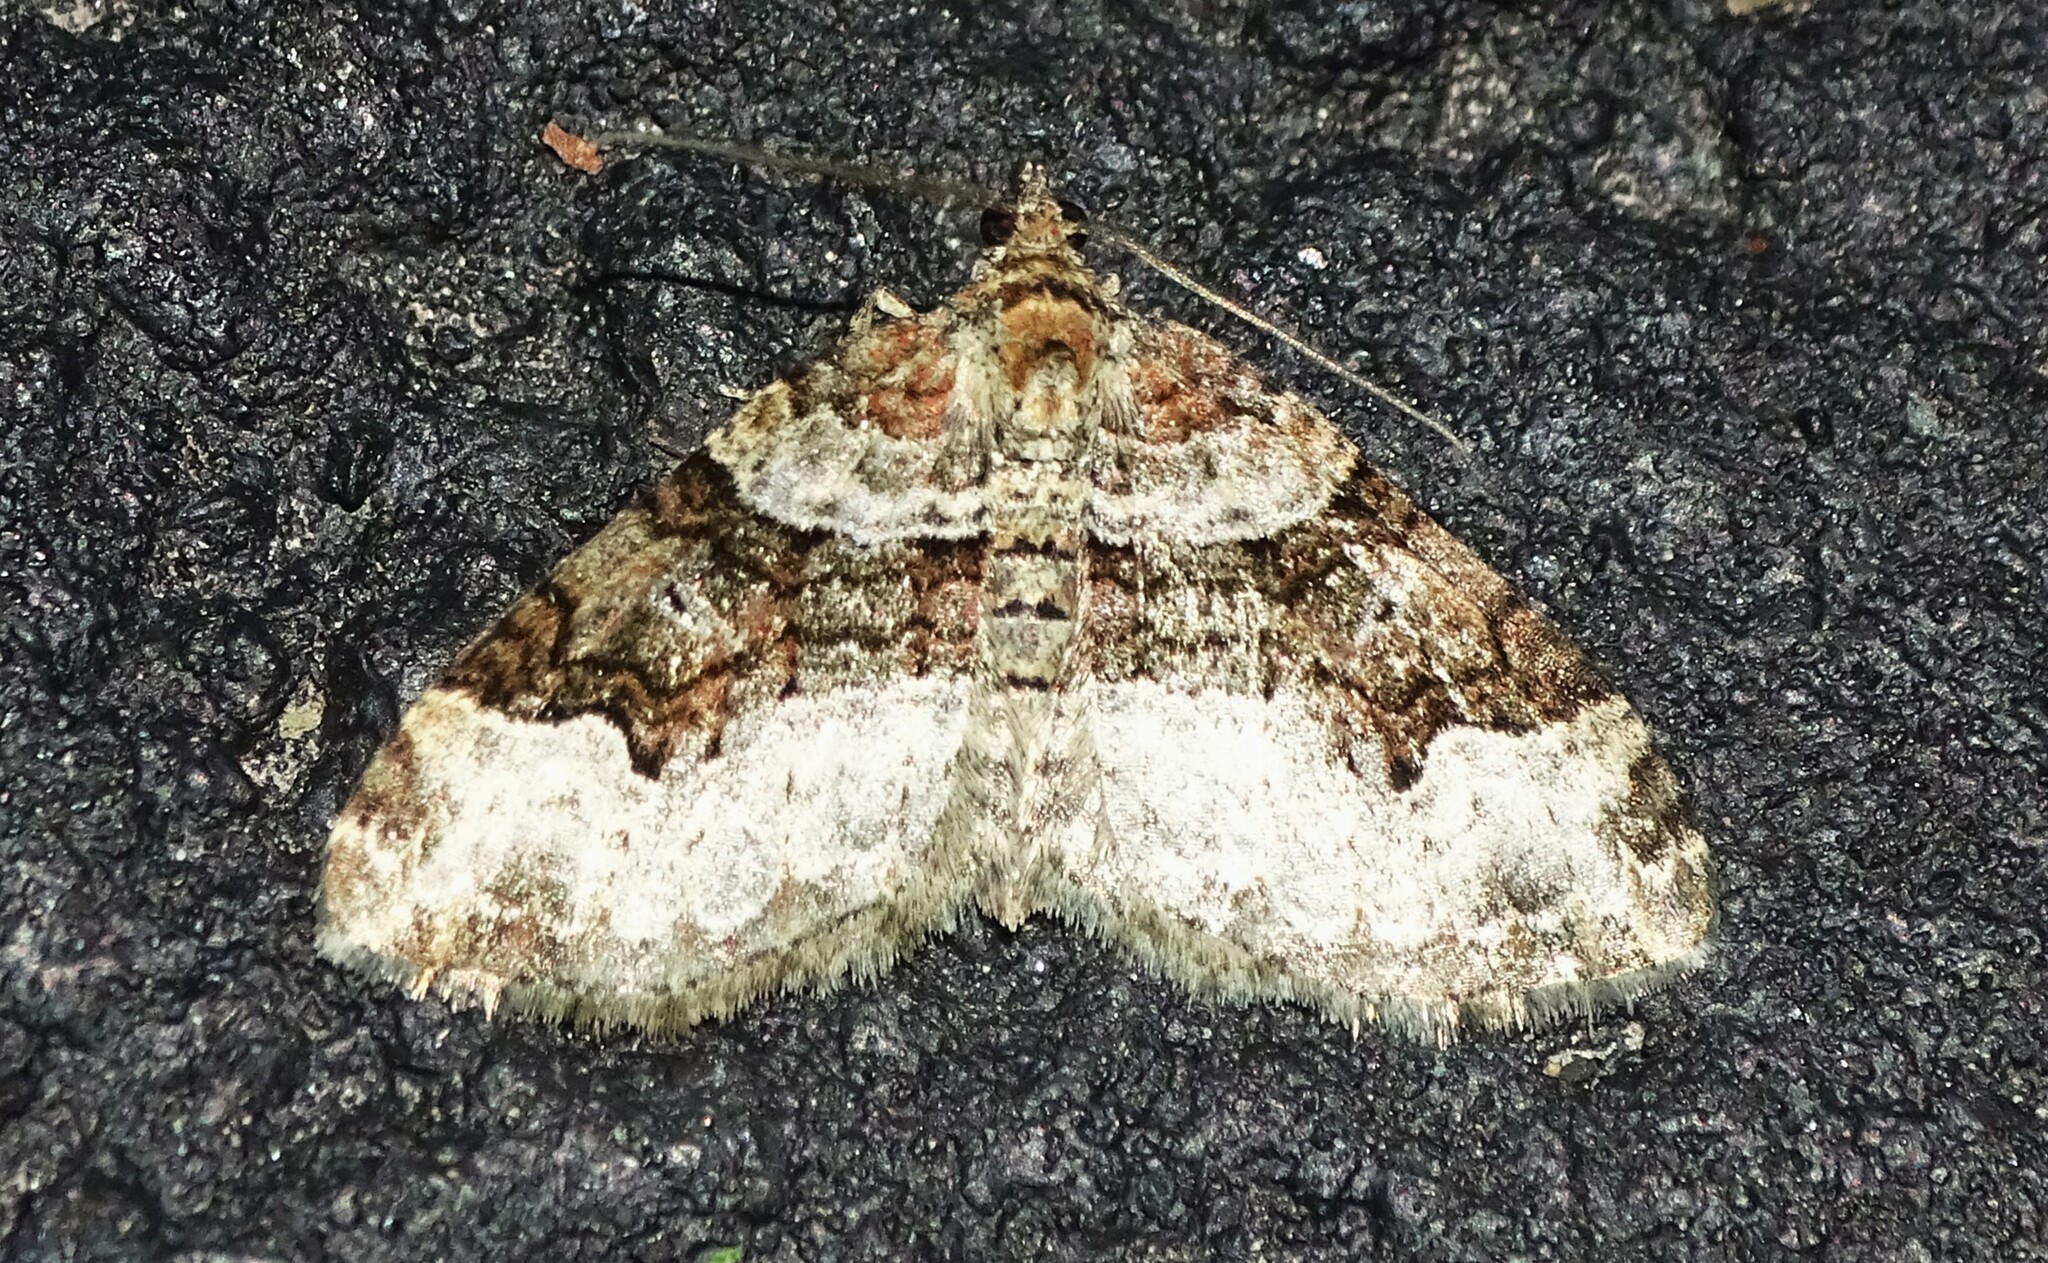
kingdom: Animalia
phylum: Arthropoda
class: Insecta
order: Lepidoptera
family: Geometridae
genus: Xanthorhoe
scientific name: Xanthorhoe lacustrata
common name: Toothed brown carpet
